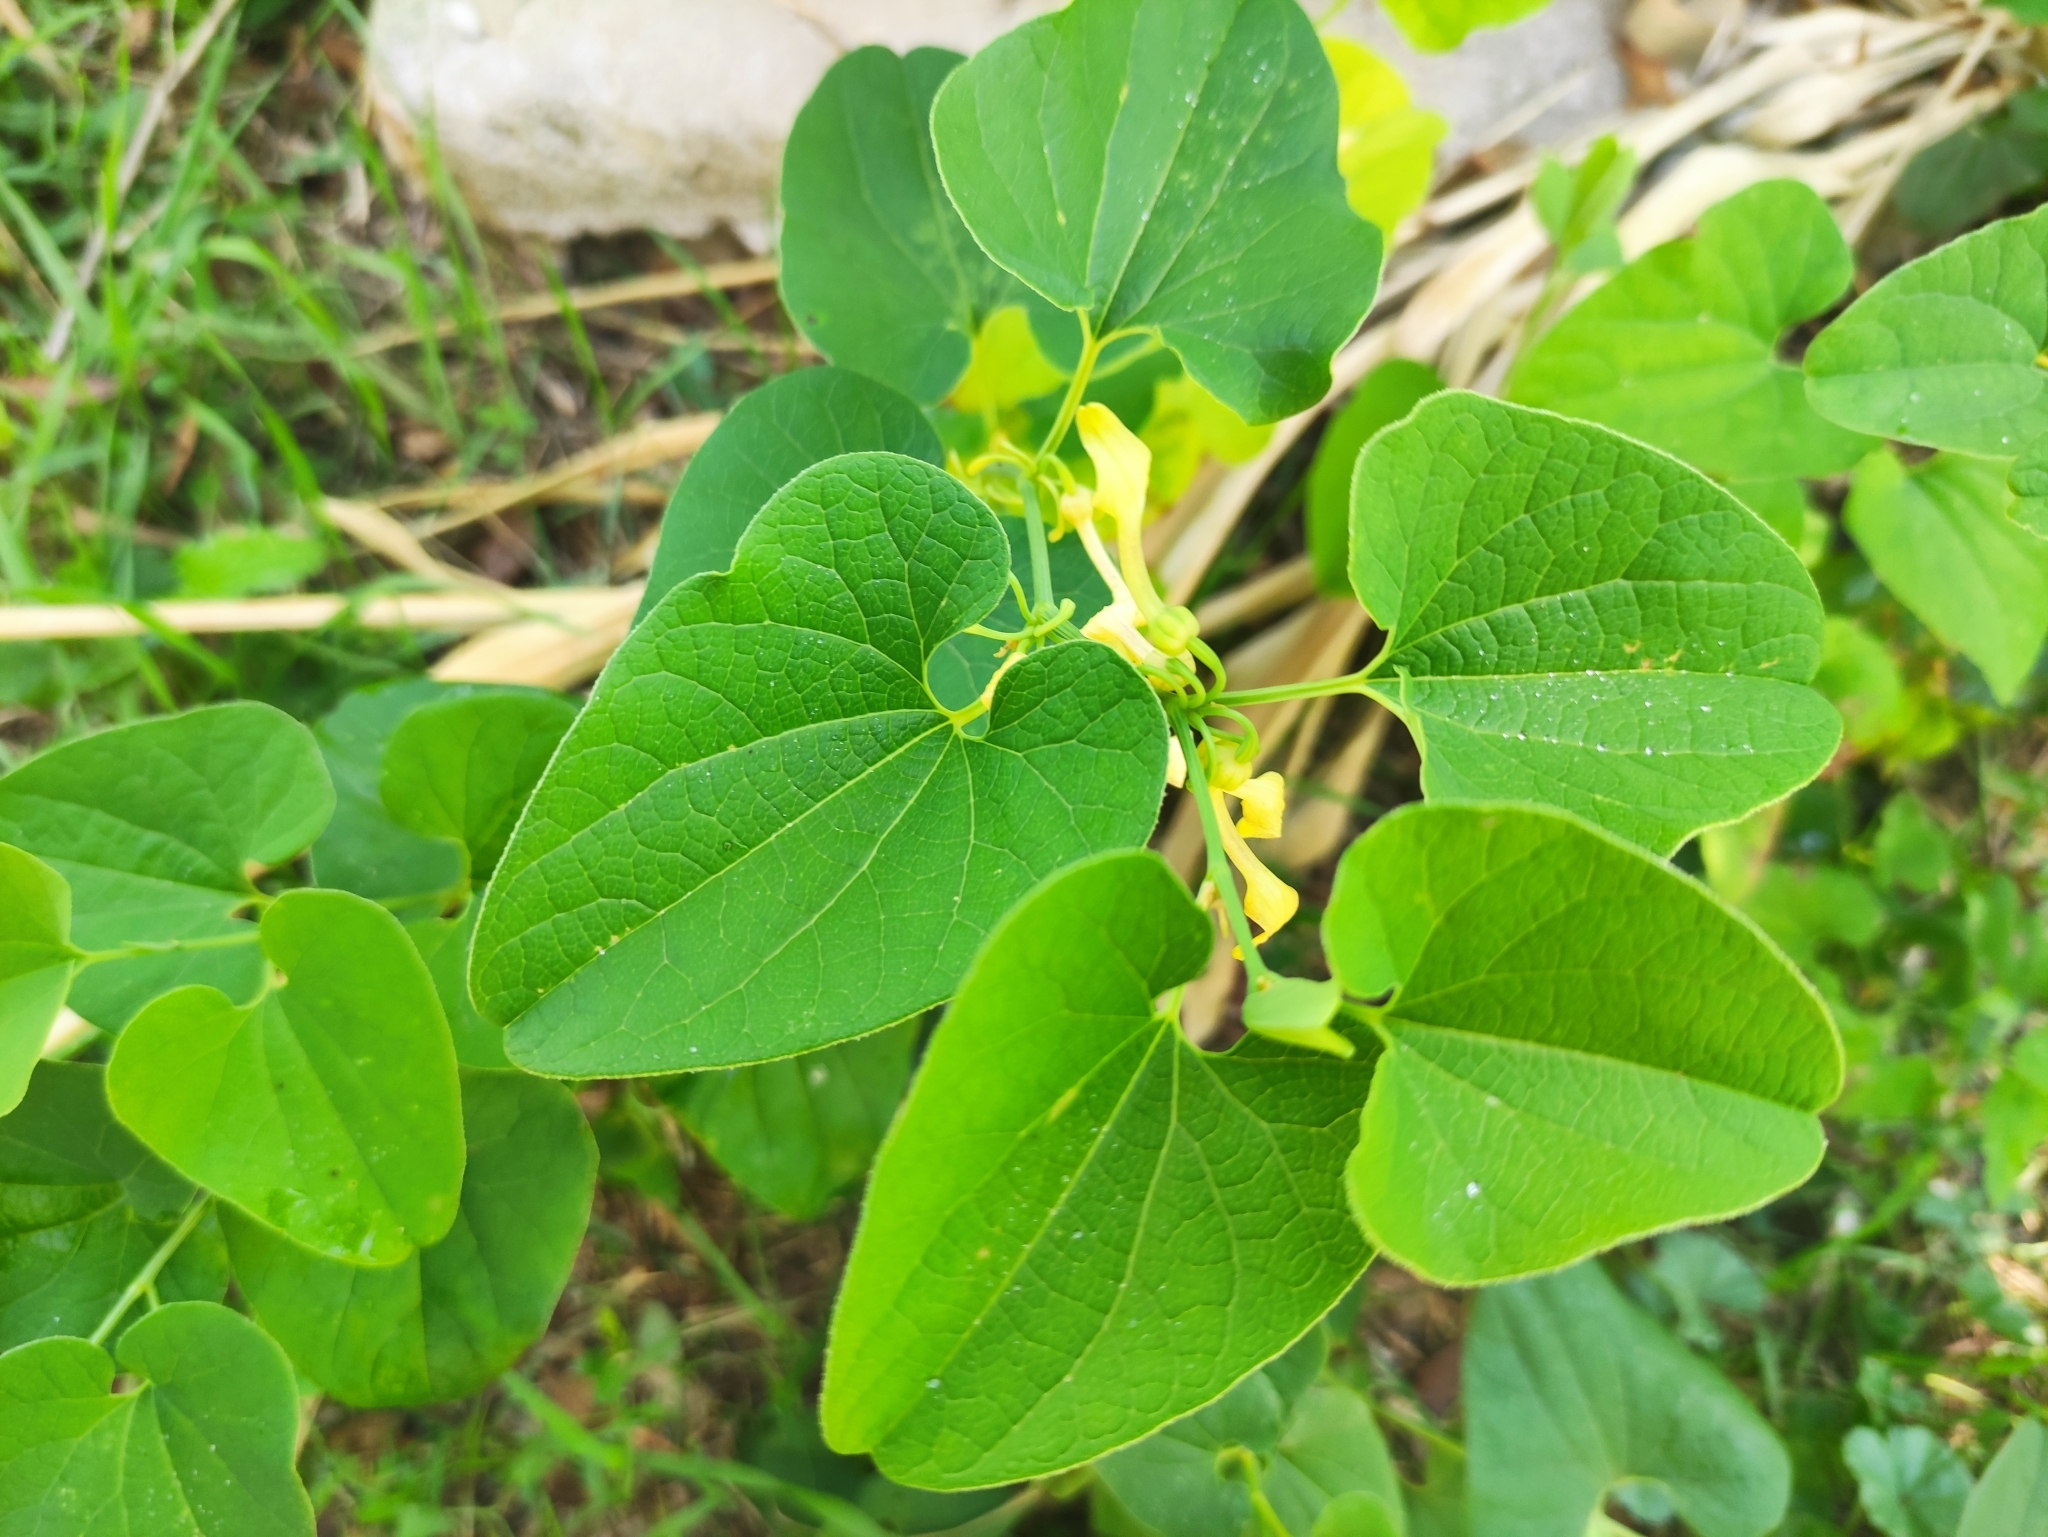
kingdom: Plantae
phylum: Tracheophyta
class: Magnoliopsida
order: Piperales
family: Aristolochiaceae
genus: Aristolochia
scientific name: Aristolochia clematitis
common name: Birthwort
